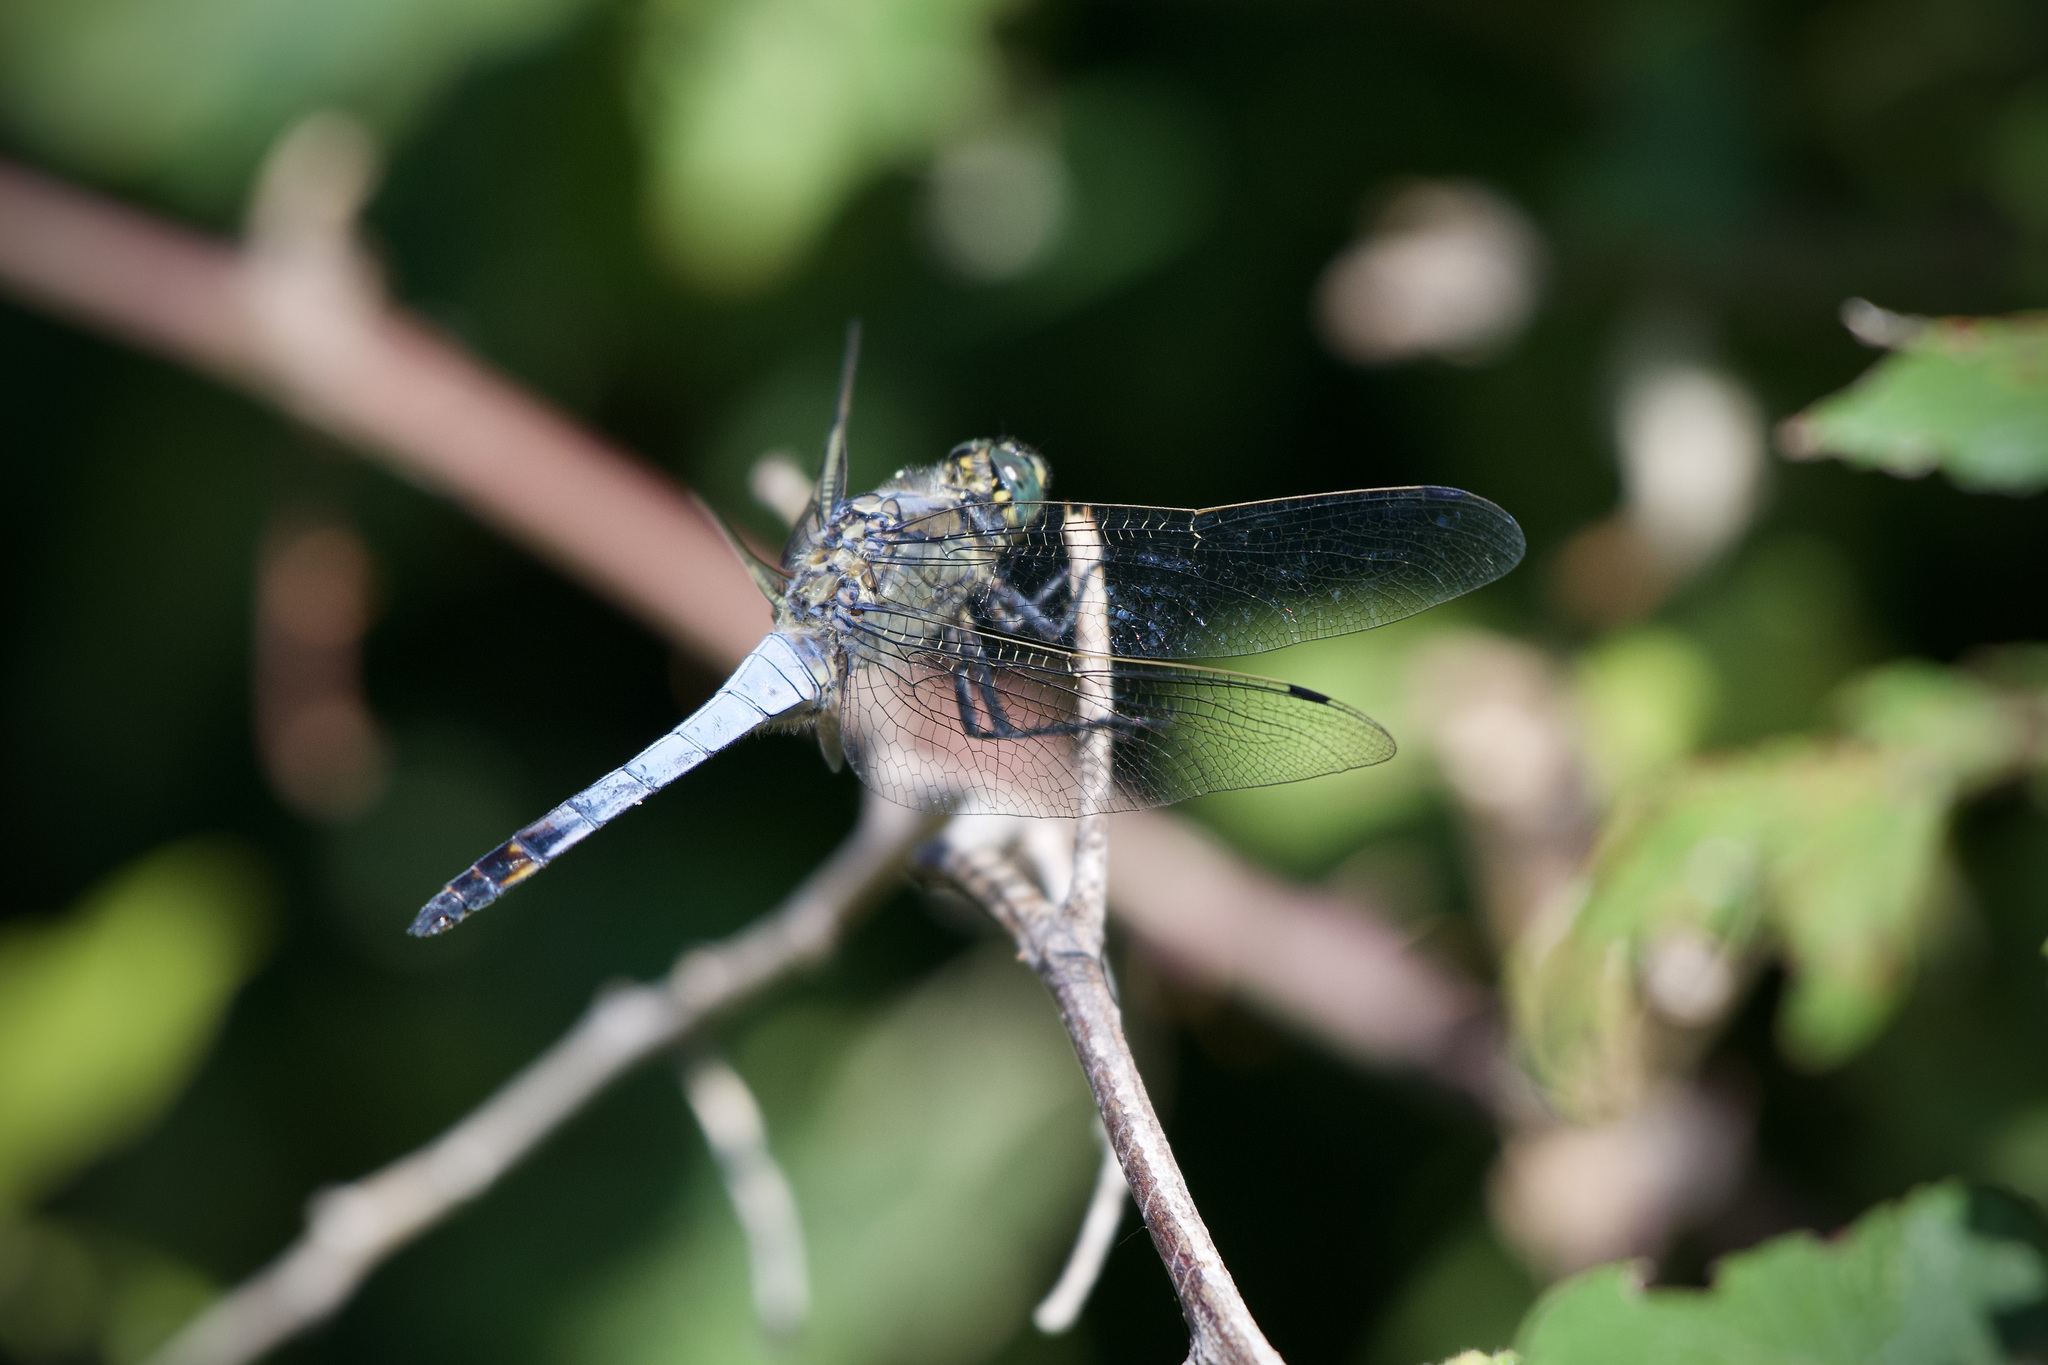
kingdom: Animalia
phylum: Arthropoda
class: Insecta
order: Odonata
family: Libellulidae
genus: Orthetrum
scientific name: Orthetrum cancellatum
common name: Black-tailed skimmer
